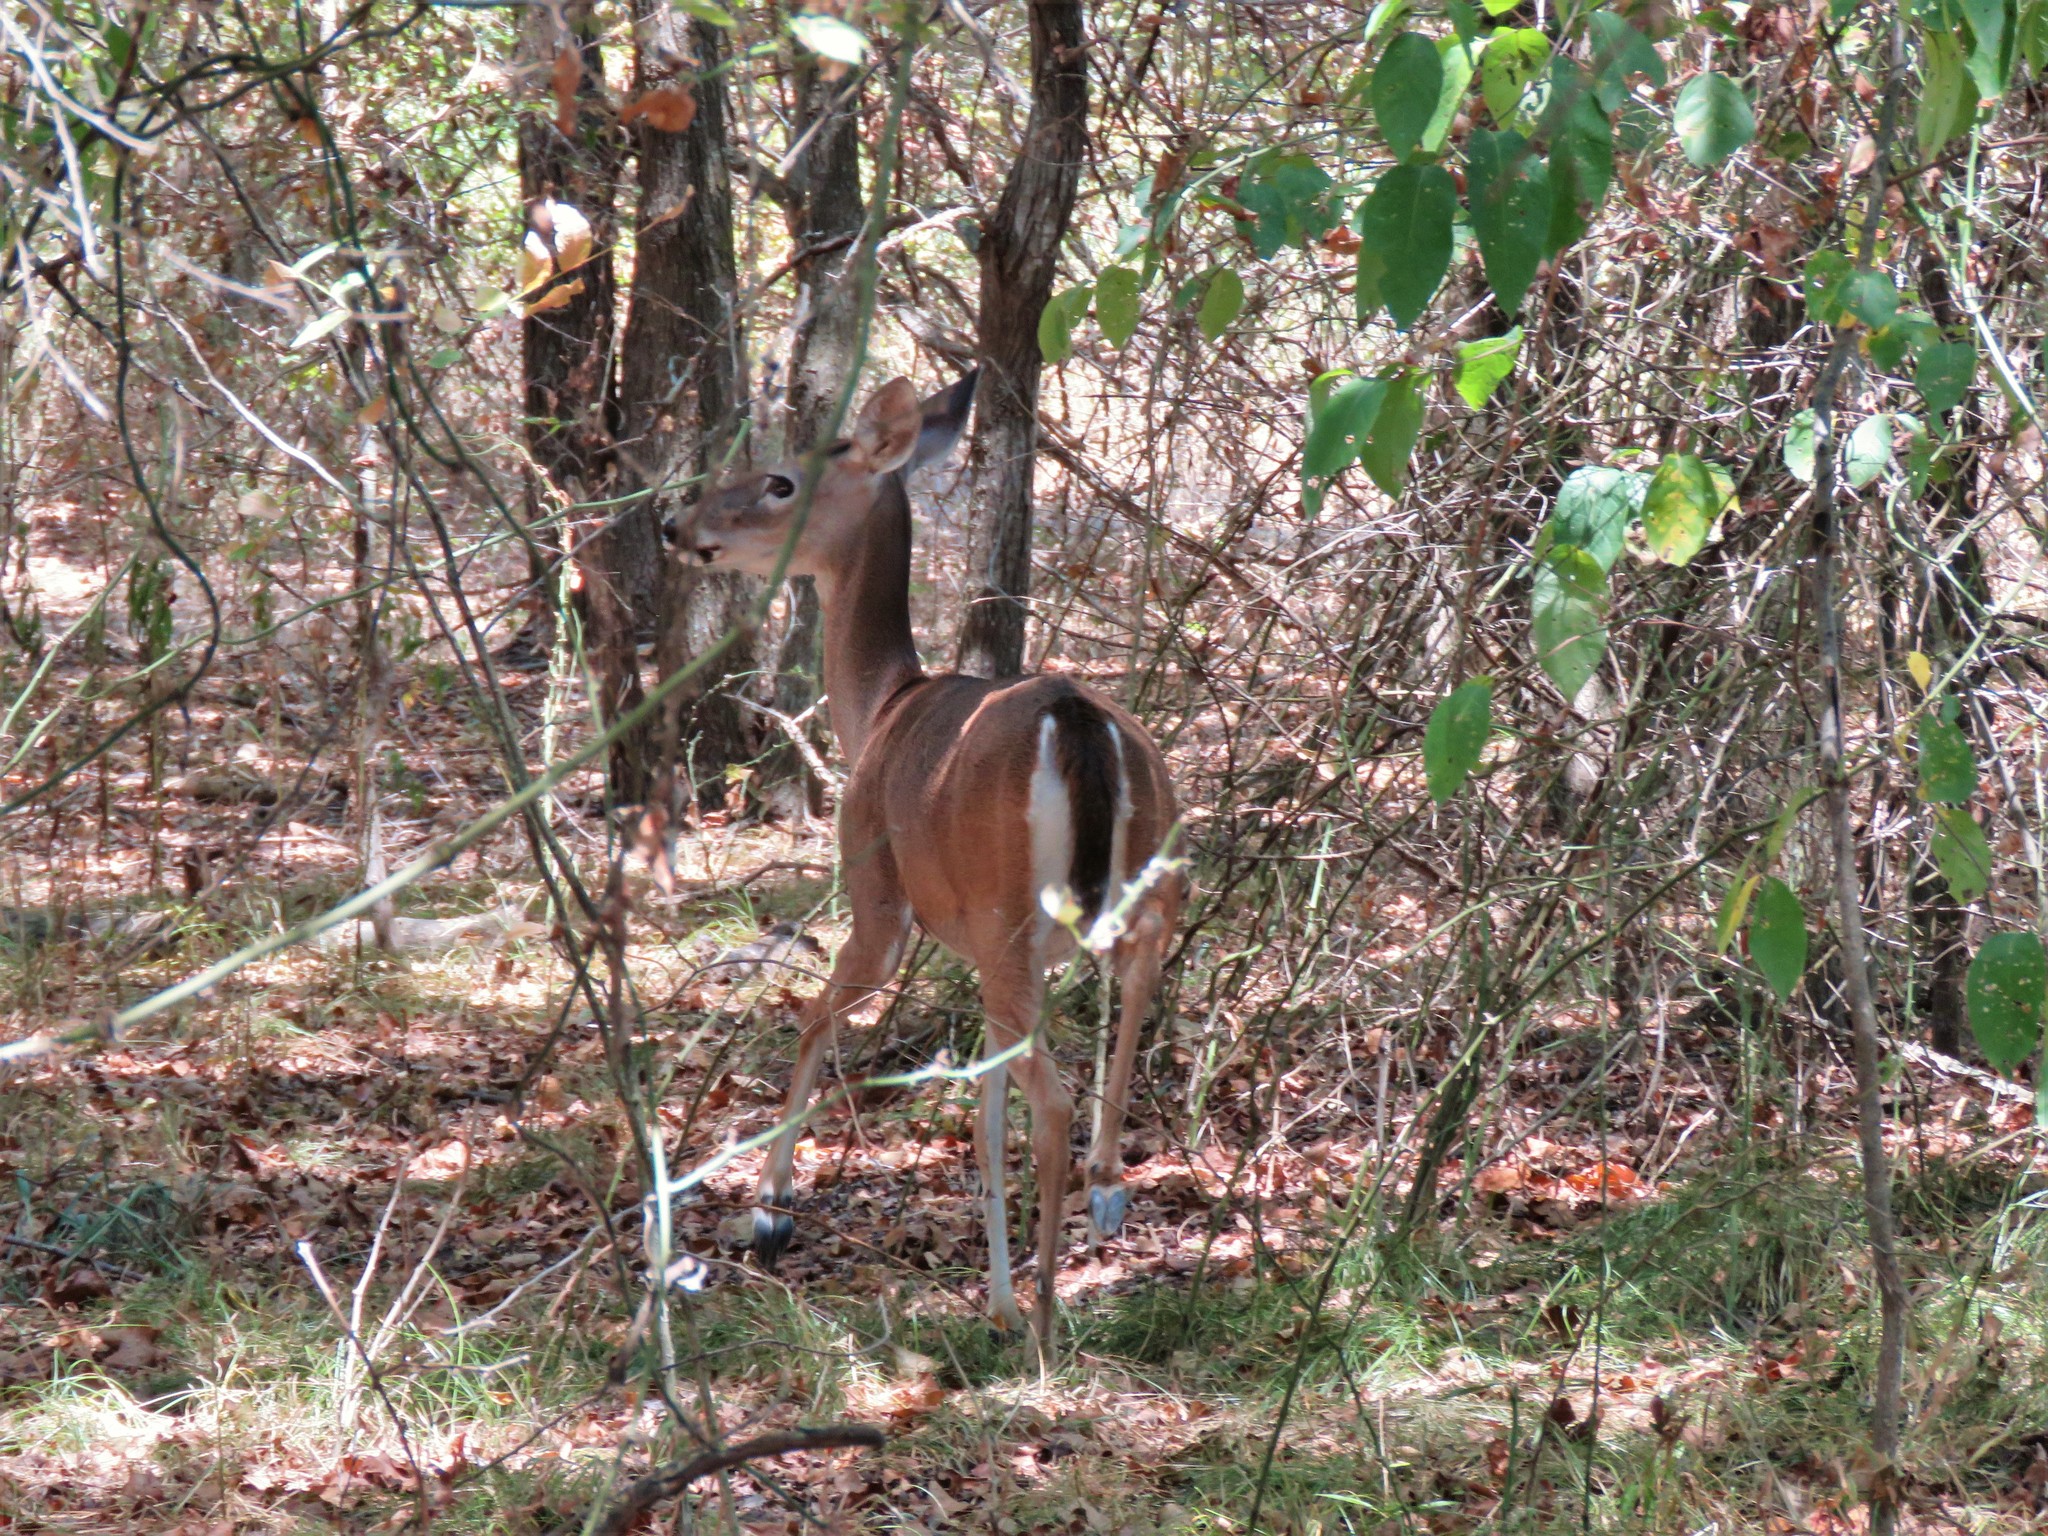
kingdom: Animalia
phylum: Chordata
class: Mammalia
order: Artiodactyla
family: Cervidae
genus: Odocoileus
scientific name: Odocoileus virginianus
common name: White-tailed deer
